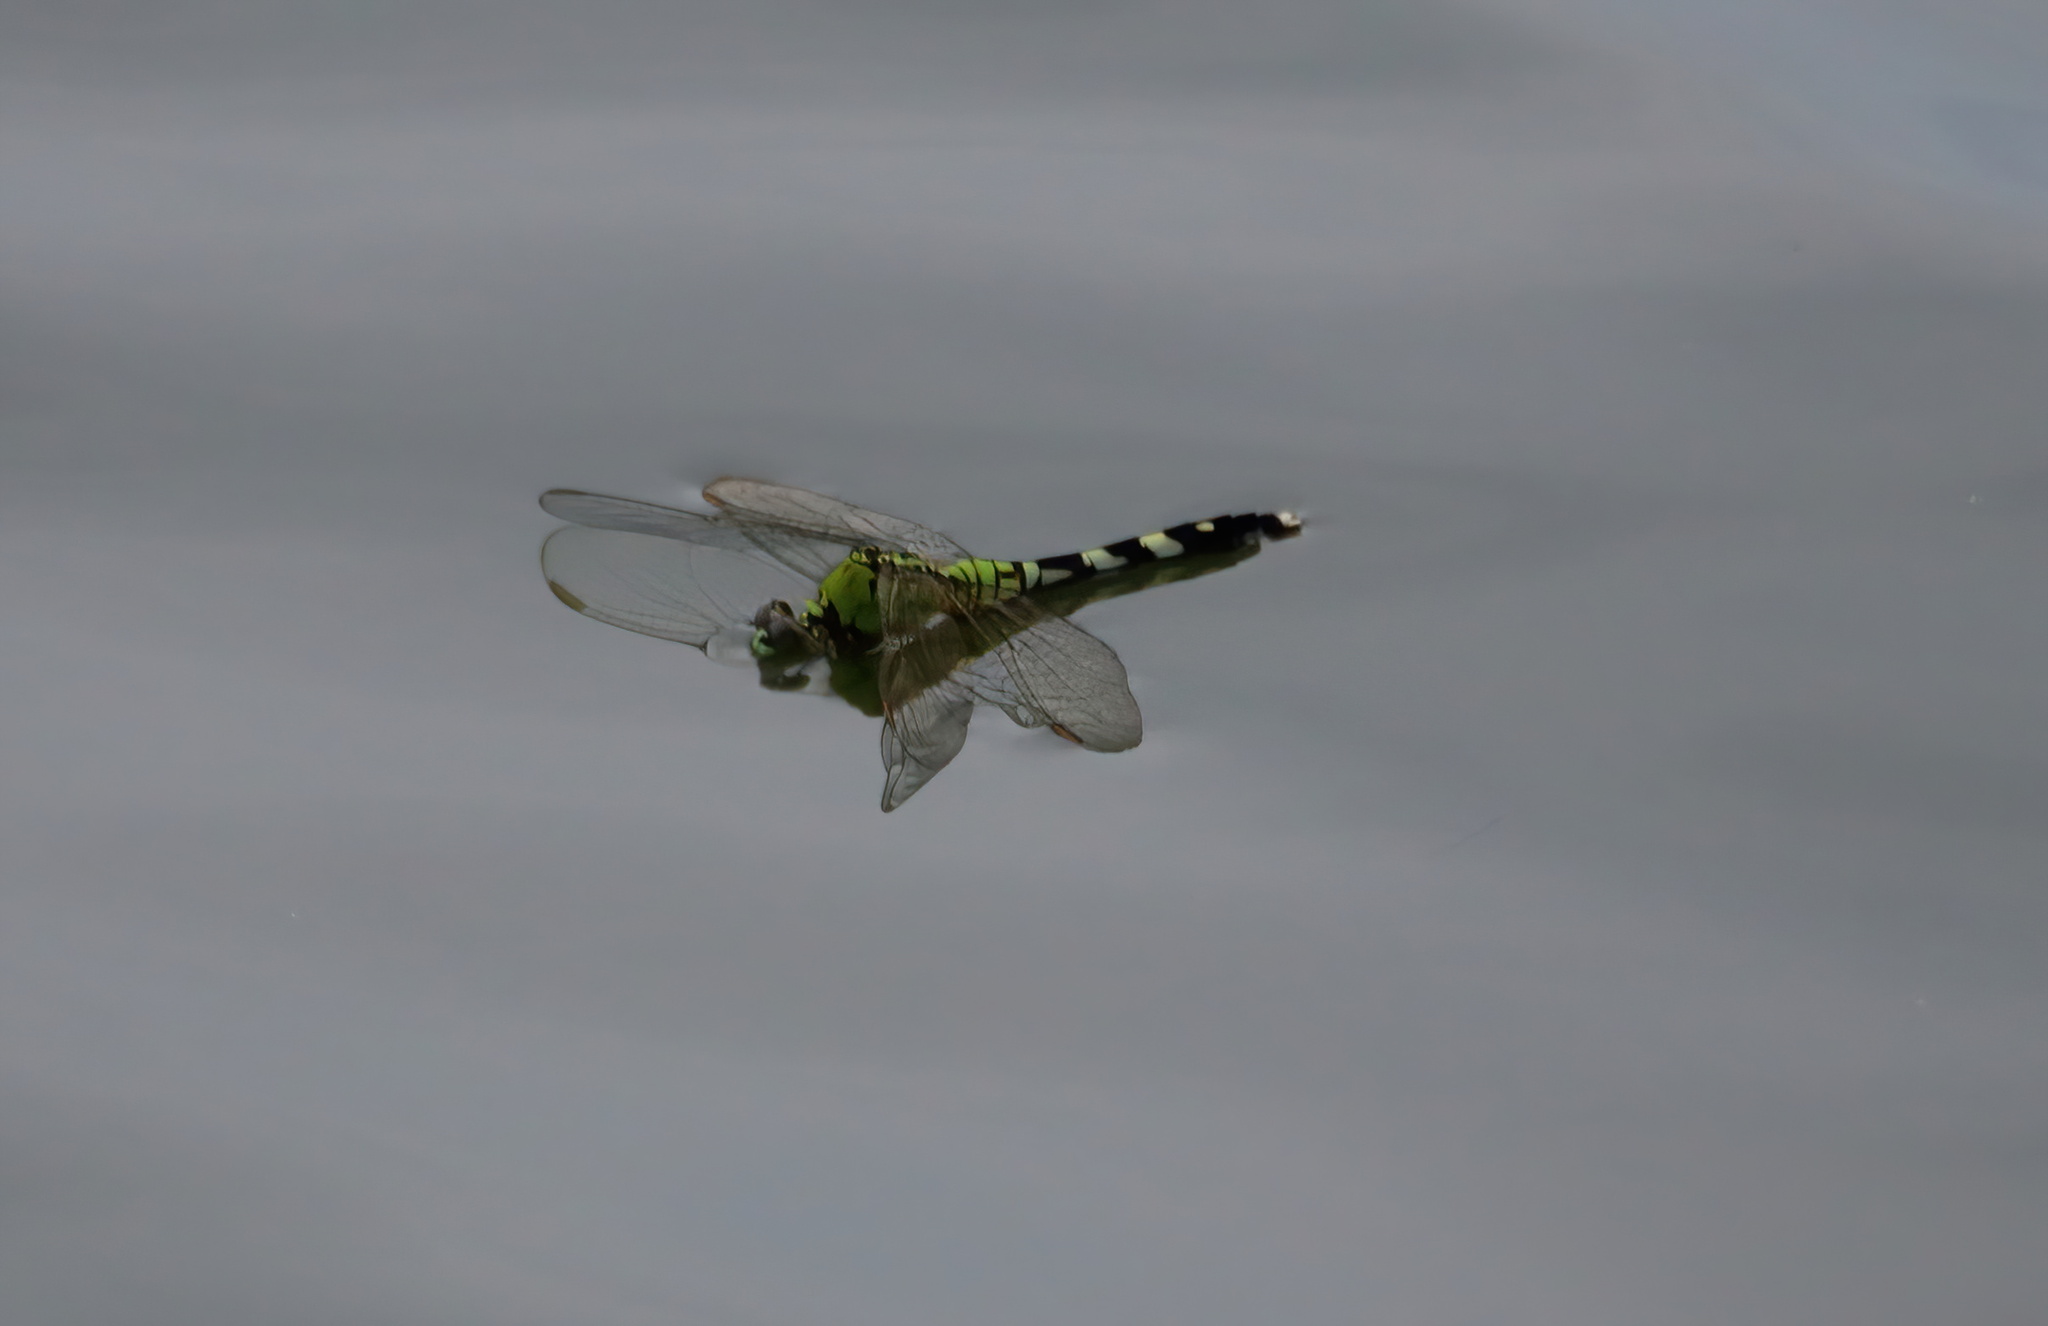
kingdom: Animalia
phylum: Arthropoda
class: Insecta
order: Odonata
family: Libellulidae
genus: Erythemis
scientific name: Erythemis simplicicollis
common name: Eastern pondhawk
